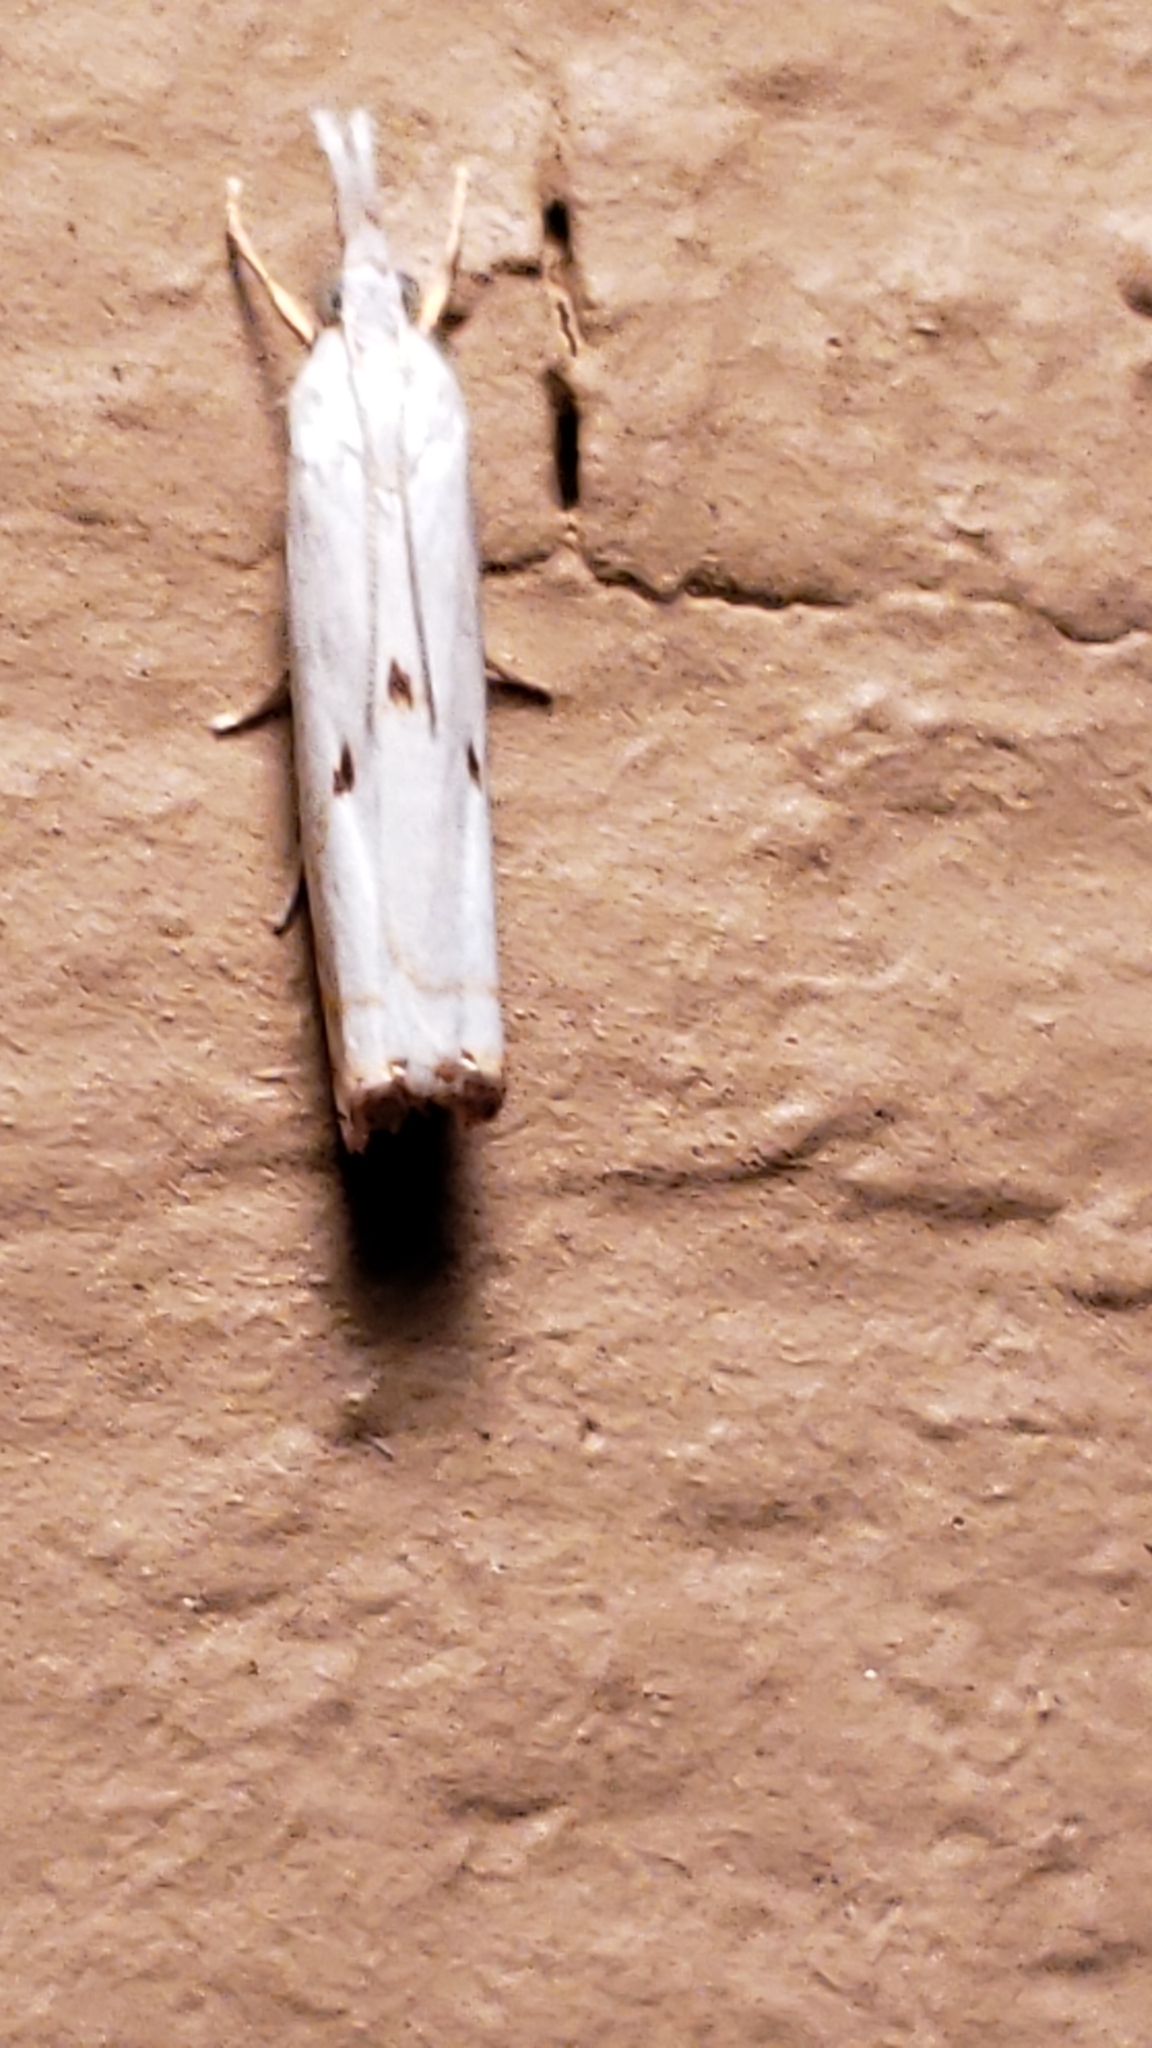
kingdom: Animalia
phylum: Arthropoda
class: Insecta
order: Lepidoptera
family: Crambidae
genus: Microcrambus
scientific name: Microcrambus biguttellus
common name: Gold-stripe grass-veneer moth
